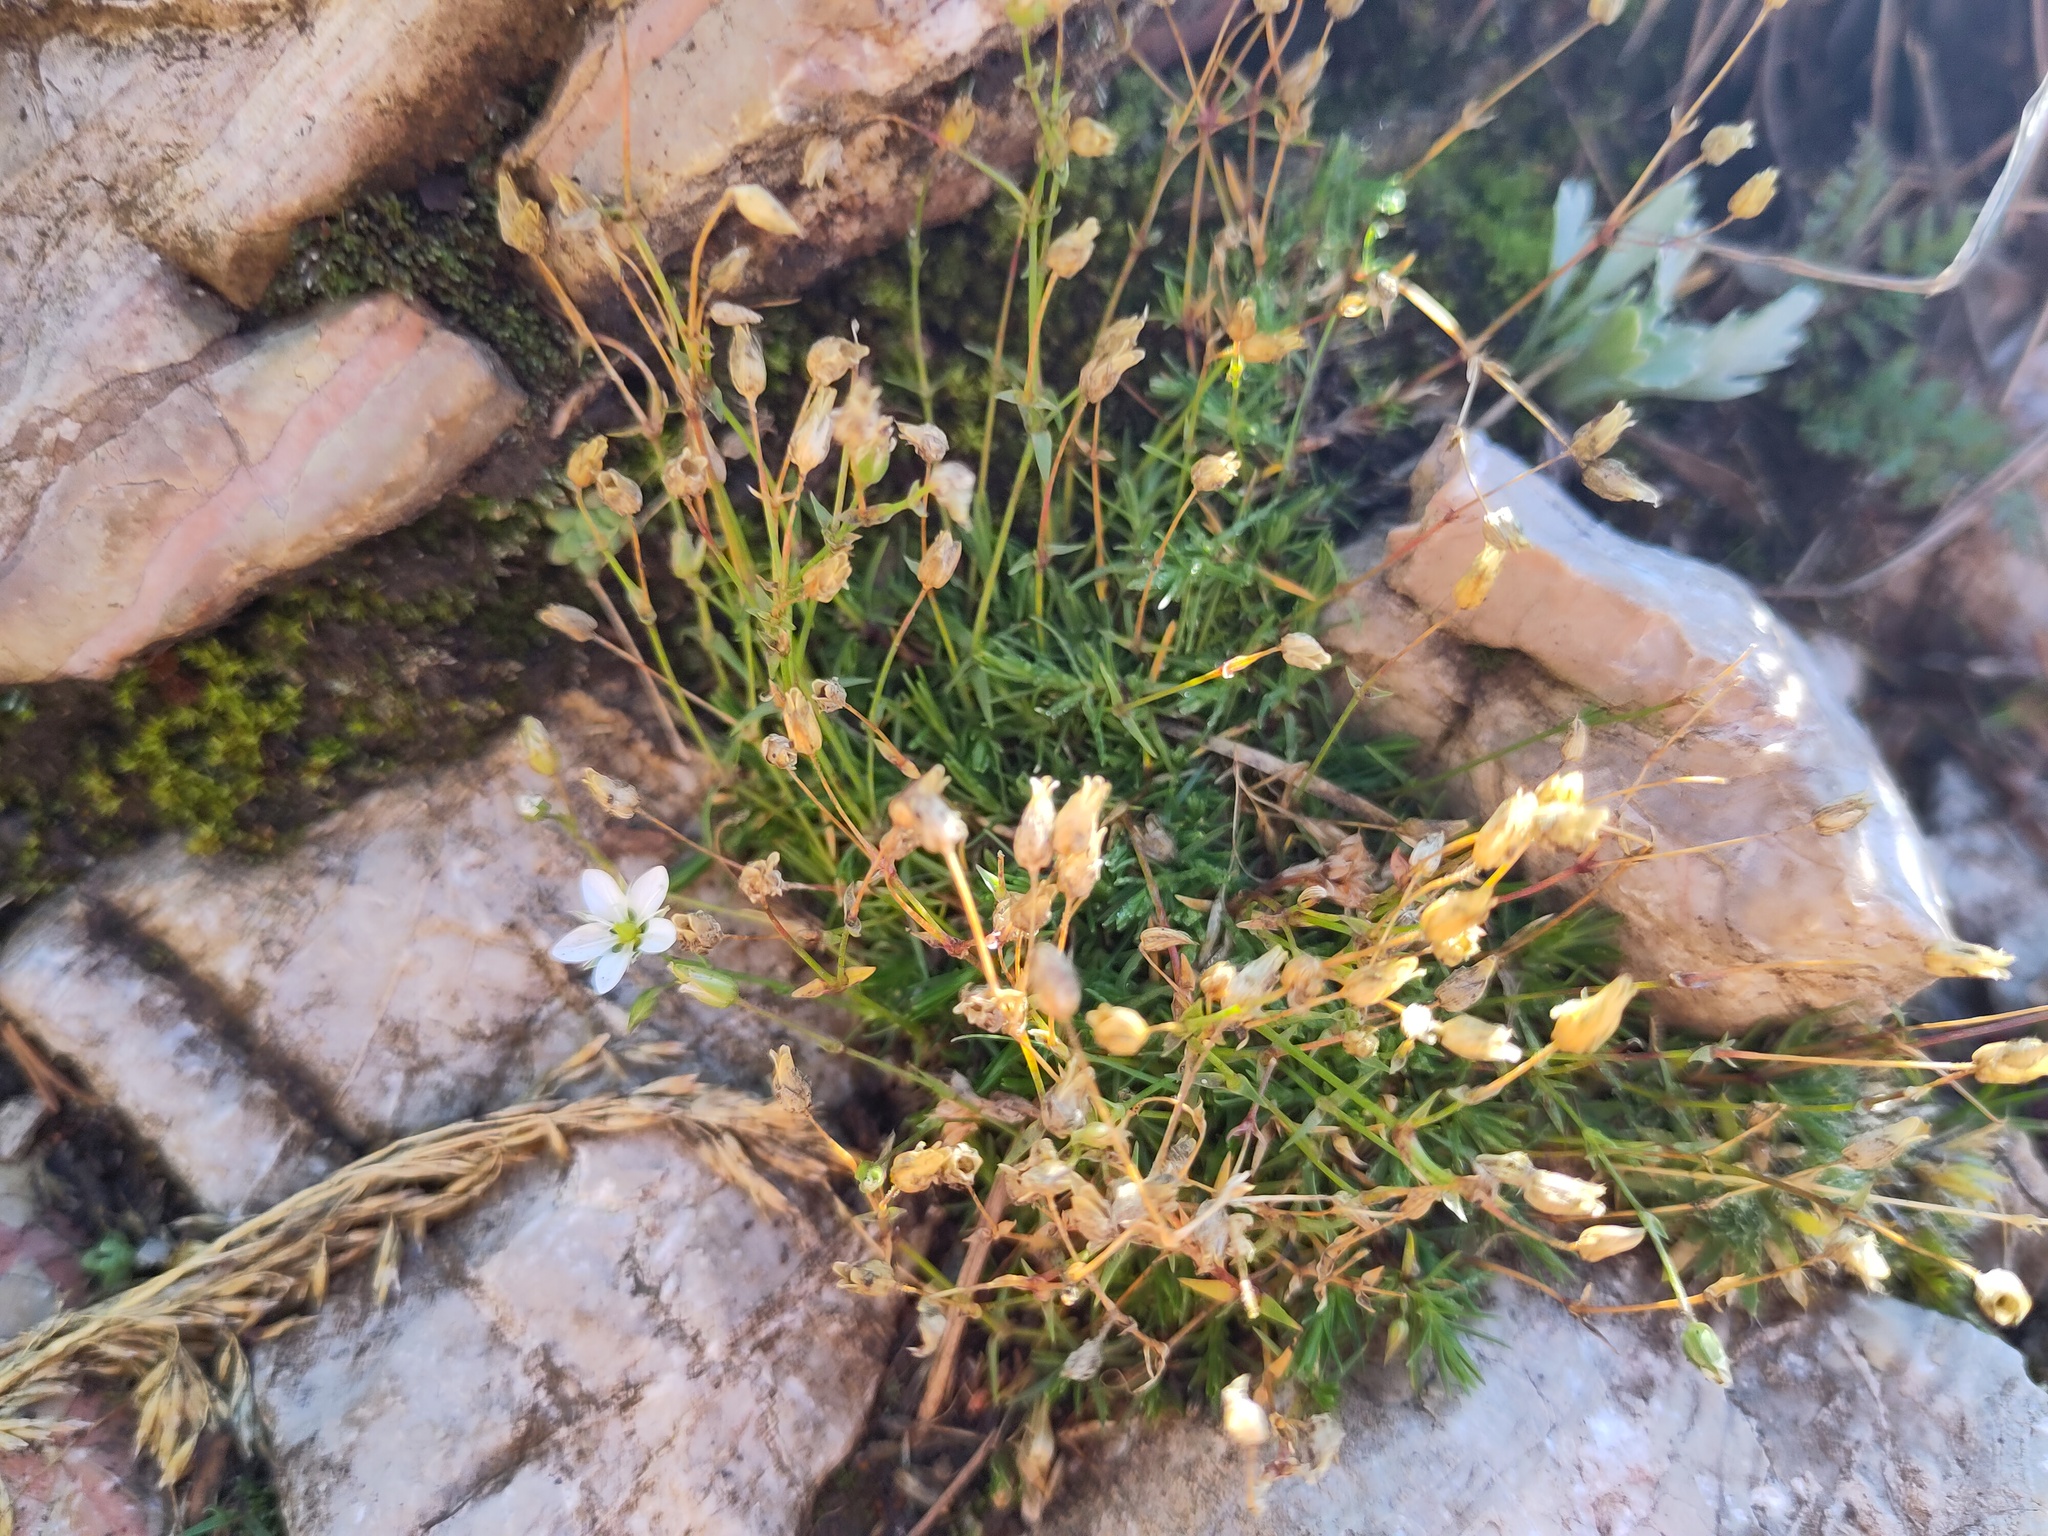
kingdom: Plantae
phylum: Tracheophyta
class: Magnoliopsida
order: Caryophyllales
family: Caryophyllaceae
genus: Sabulina
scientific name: Sabulina verna
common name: Spring sandwort
